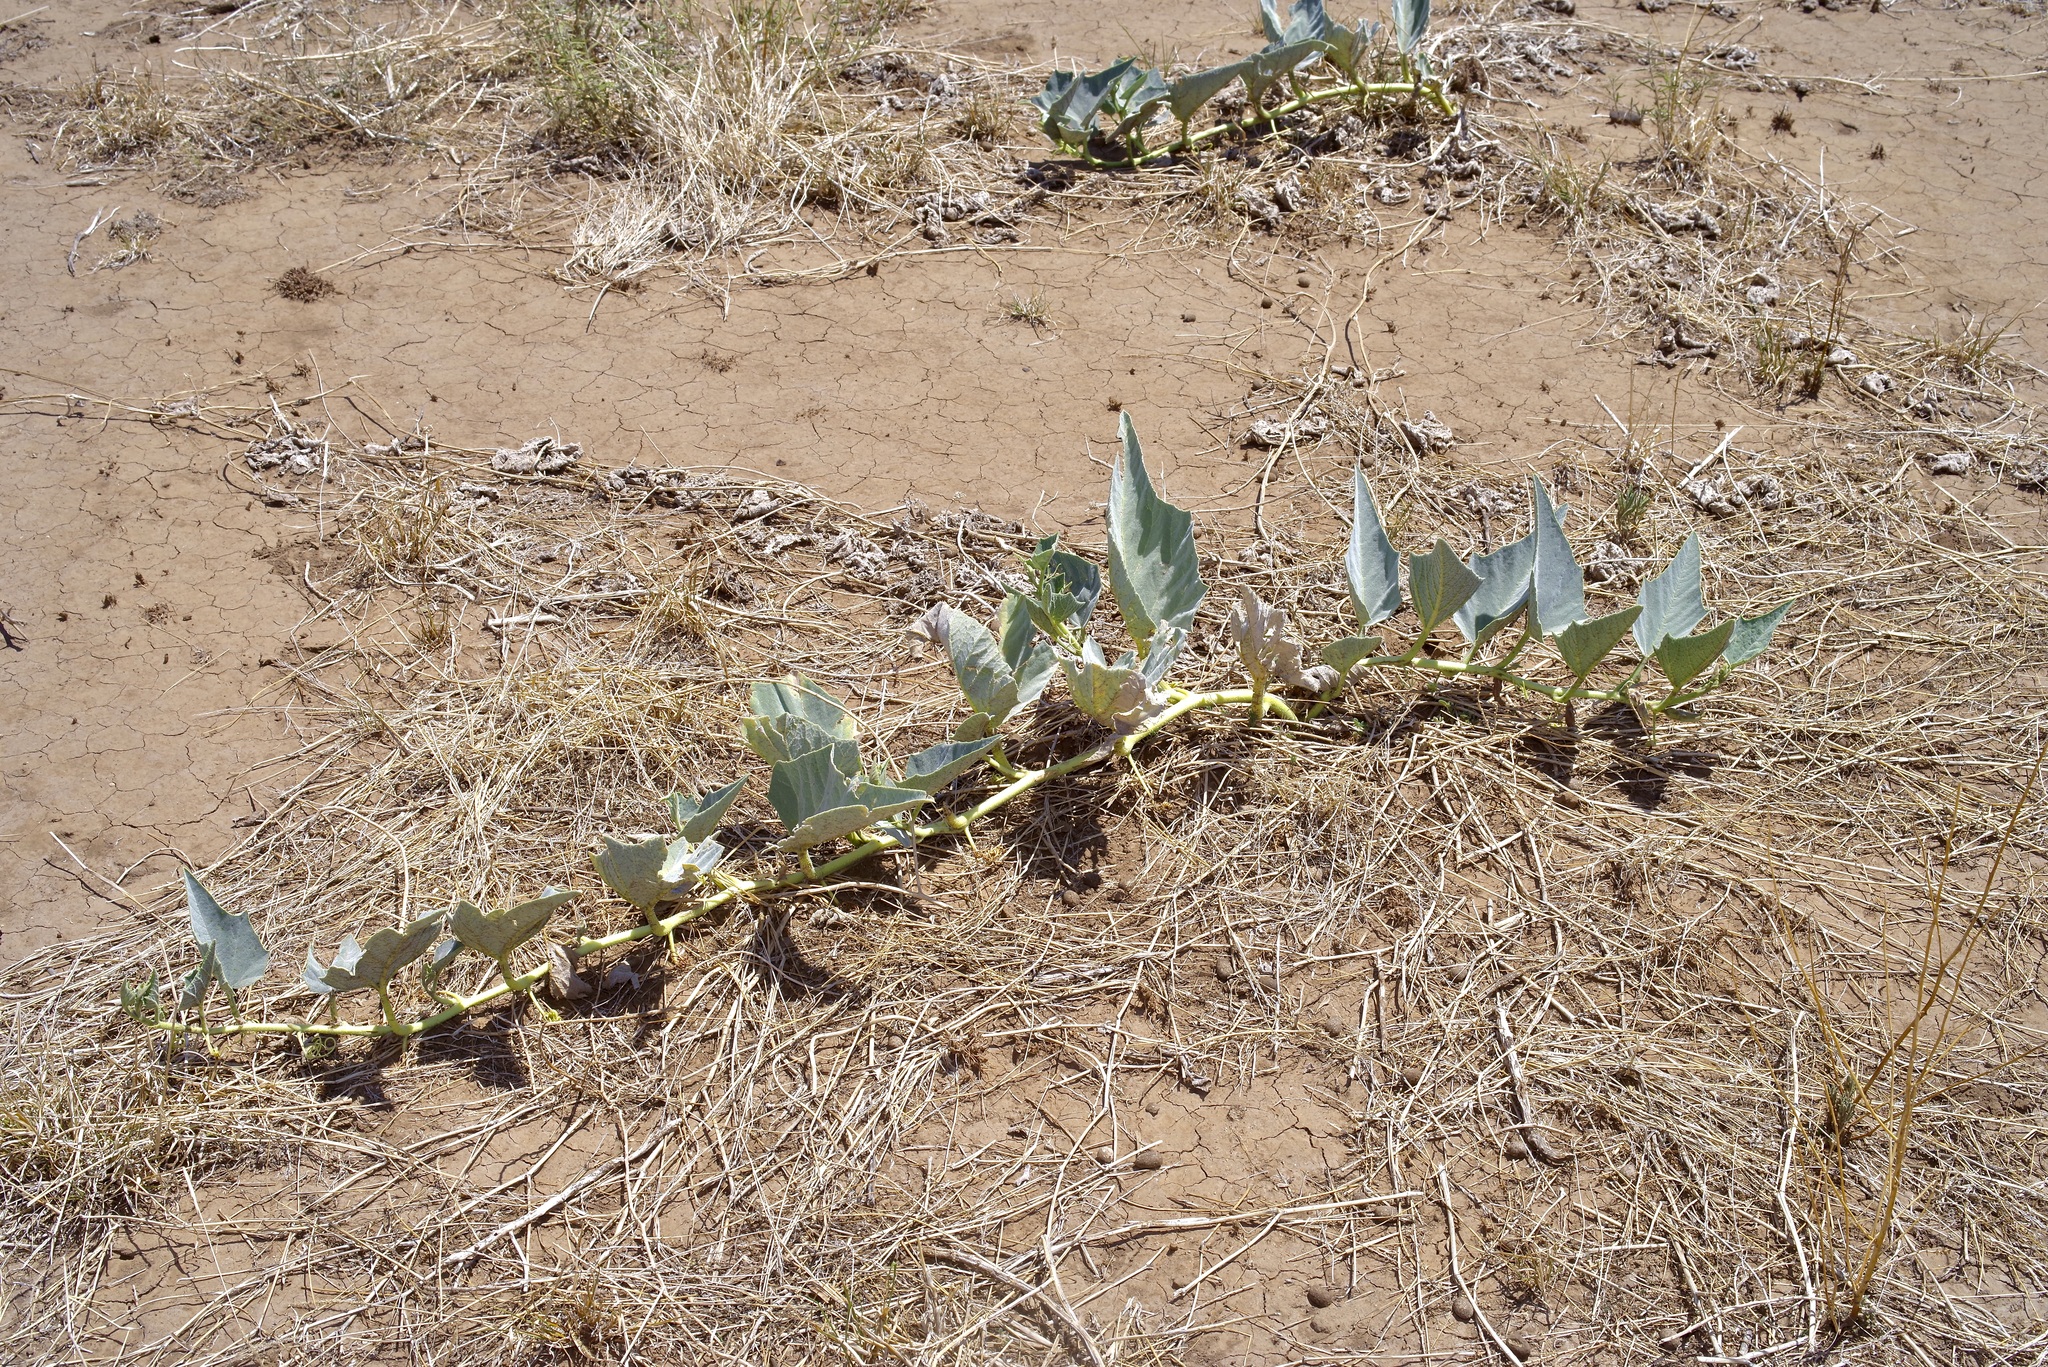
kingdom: Plantae
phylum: Tracheophyta
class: Magnoliopsida
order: Cucurbitales
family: Cucurbitaceae
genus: Cucurbita
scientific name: Cucurbita foetidissima
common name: Buffalo gourd
